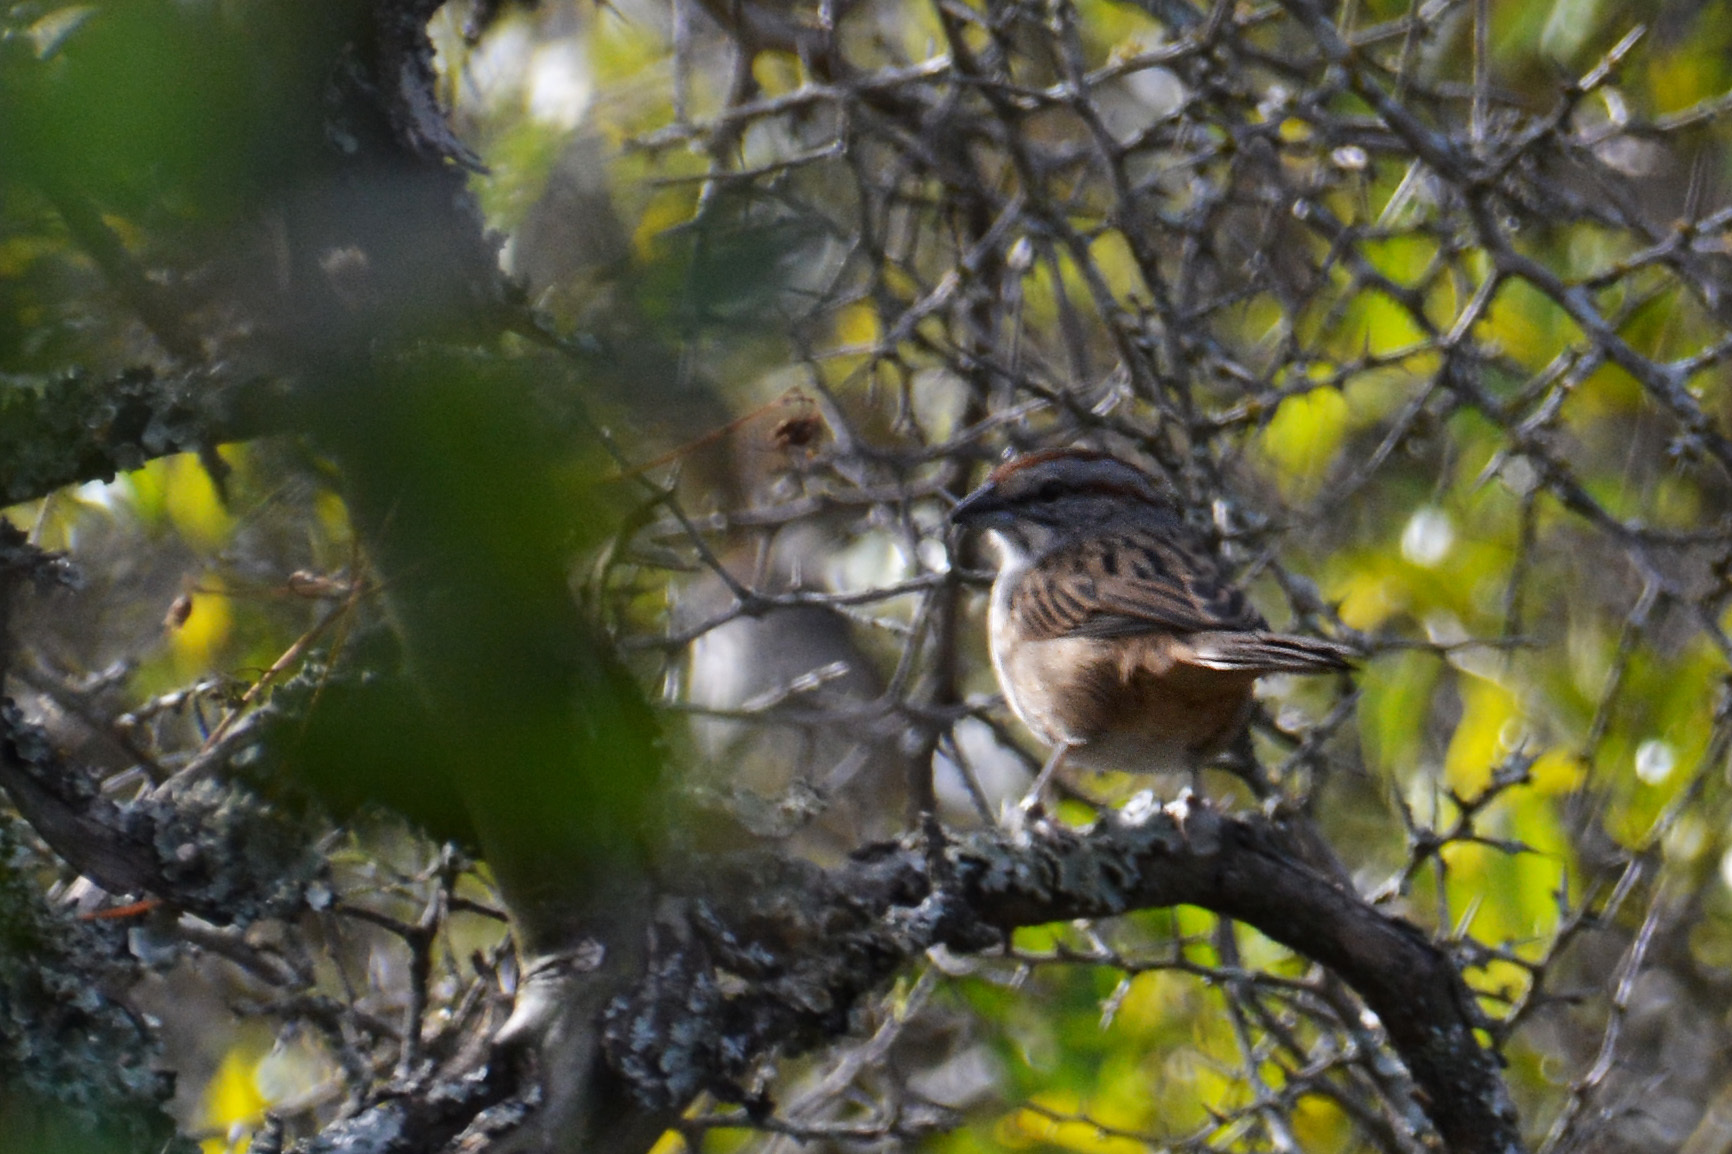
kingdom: Animalia
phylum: Chordata
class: Aves
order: Passeriformes
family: Passerellidae
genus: Rhynchospiza
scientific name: Rhynchospiza strigiceps
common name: Stripe-capped sparrow
